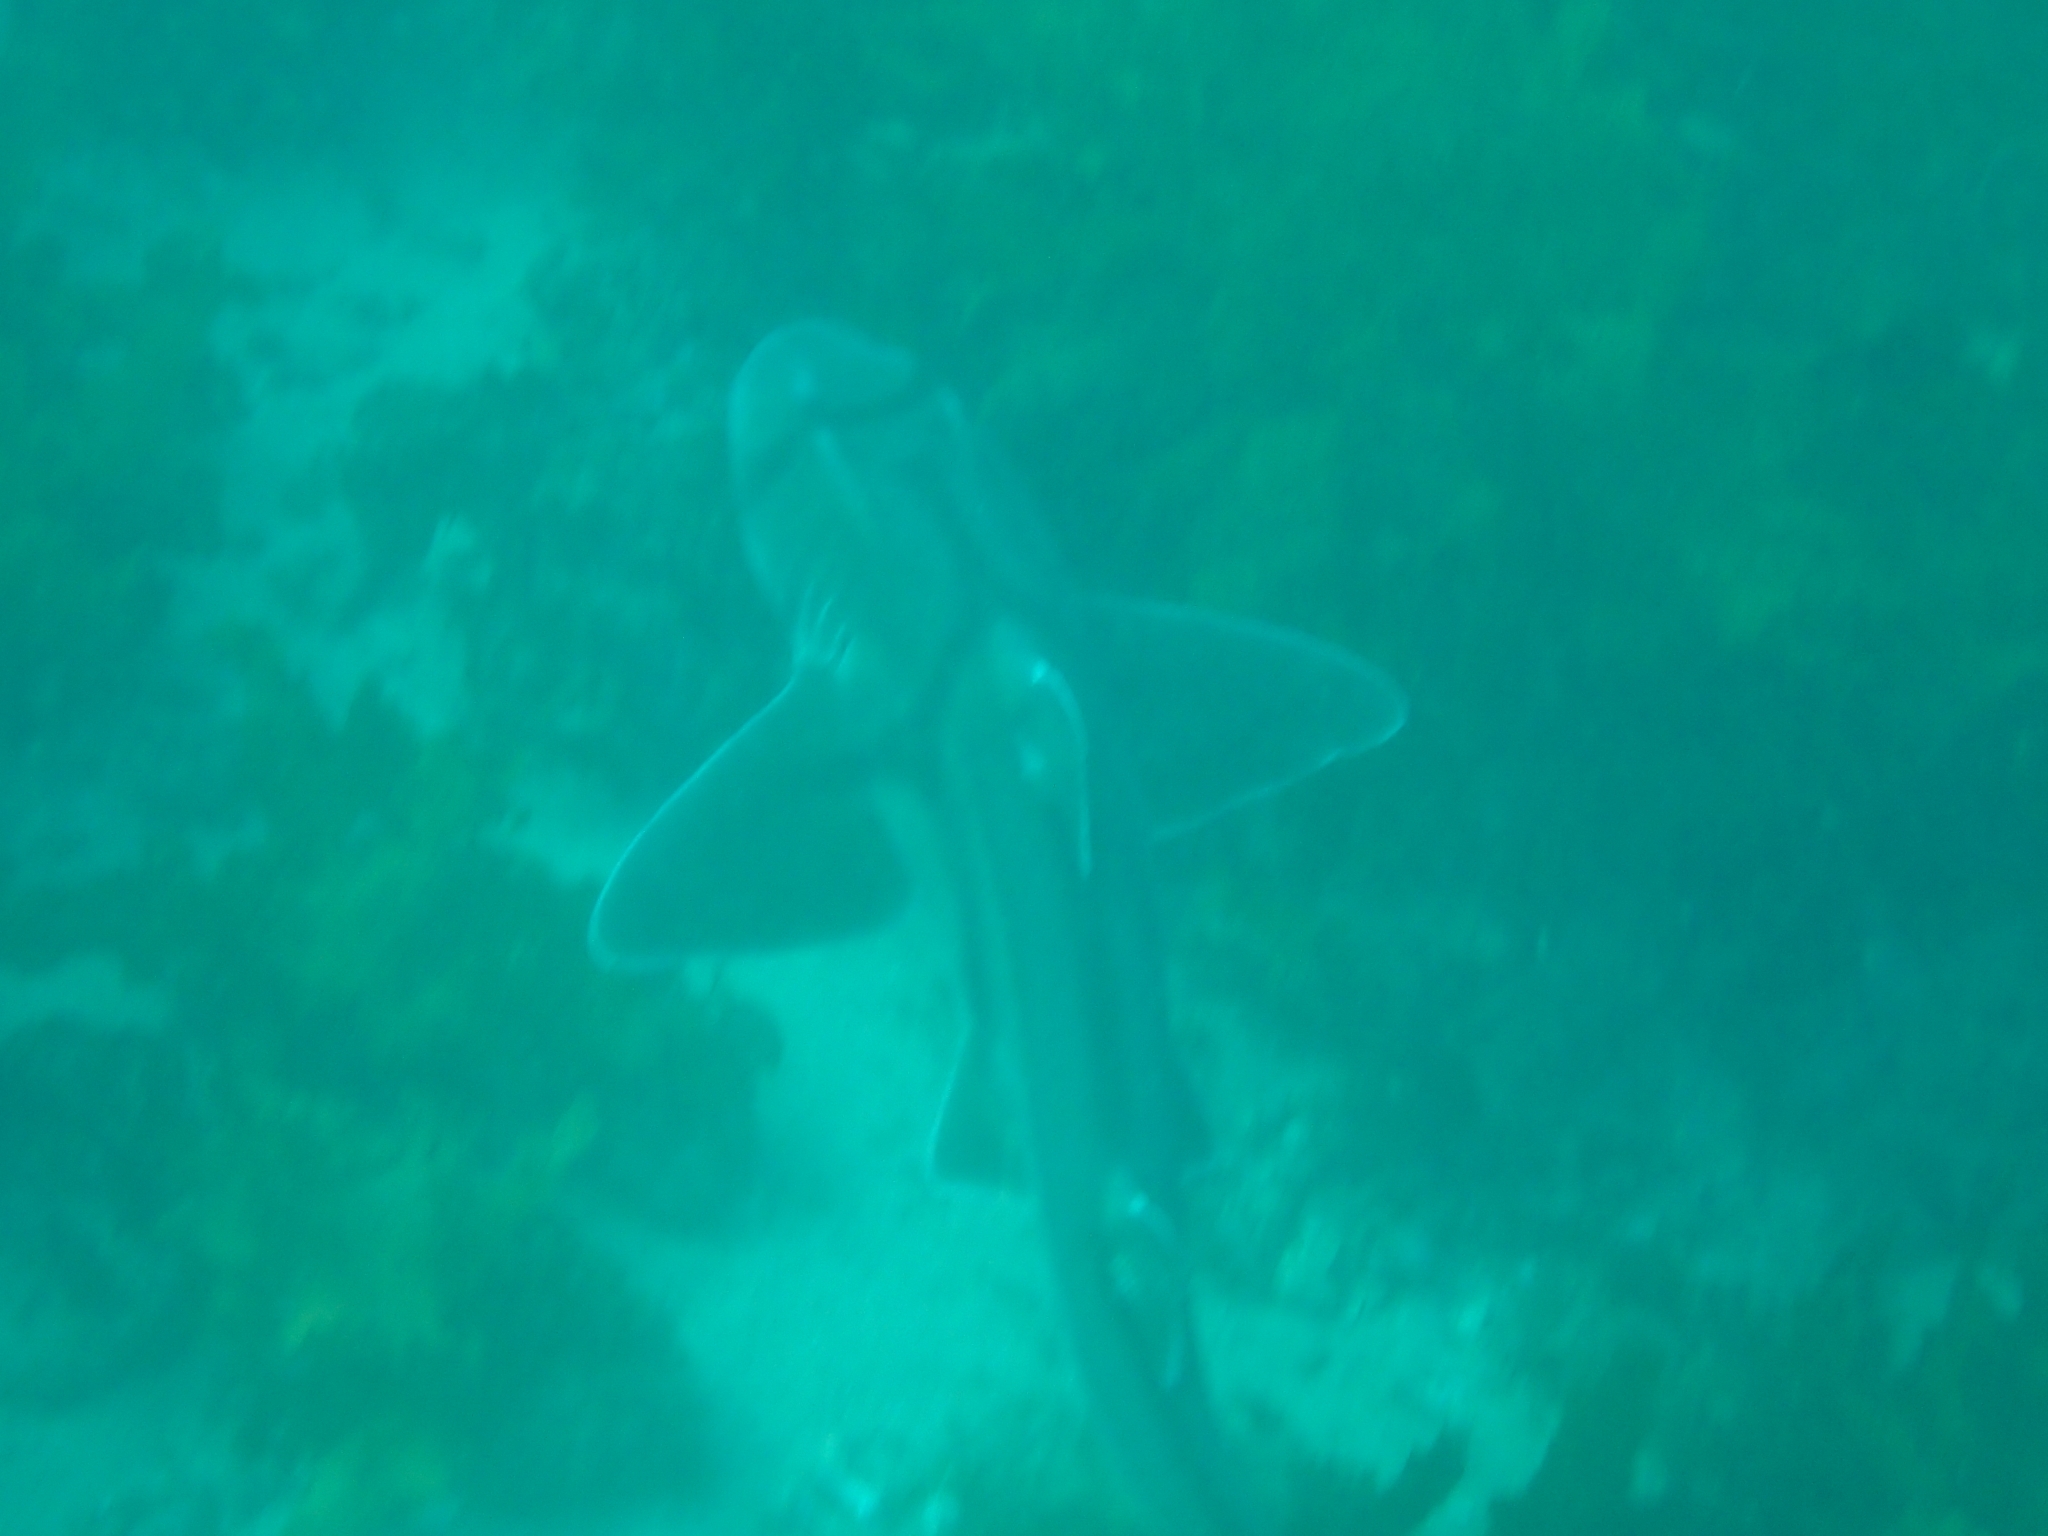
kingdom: Animalia
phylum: Chordata
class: Elasmobranchii
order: Heterodontiformes
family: Heterodontidae
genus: Heterodontus
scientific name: Heterodontus portusjacksoni
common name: Port jackson shark
